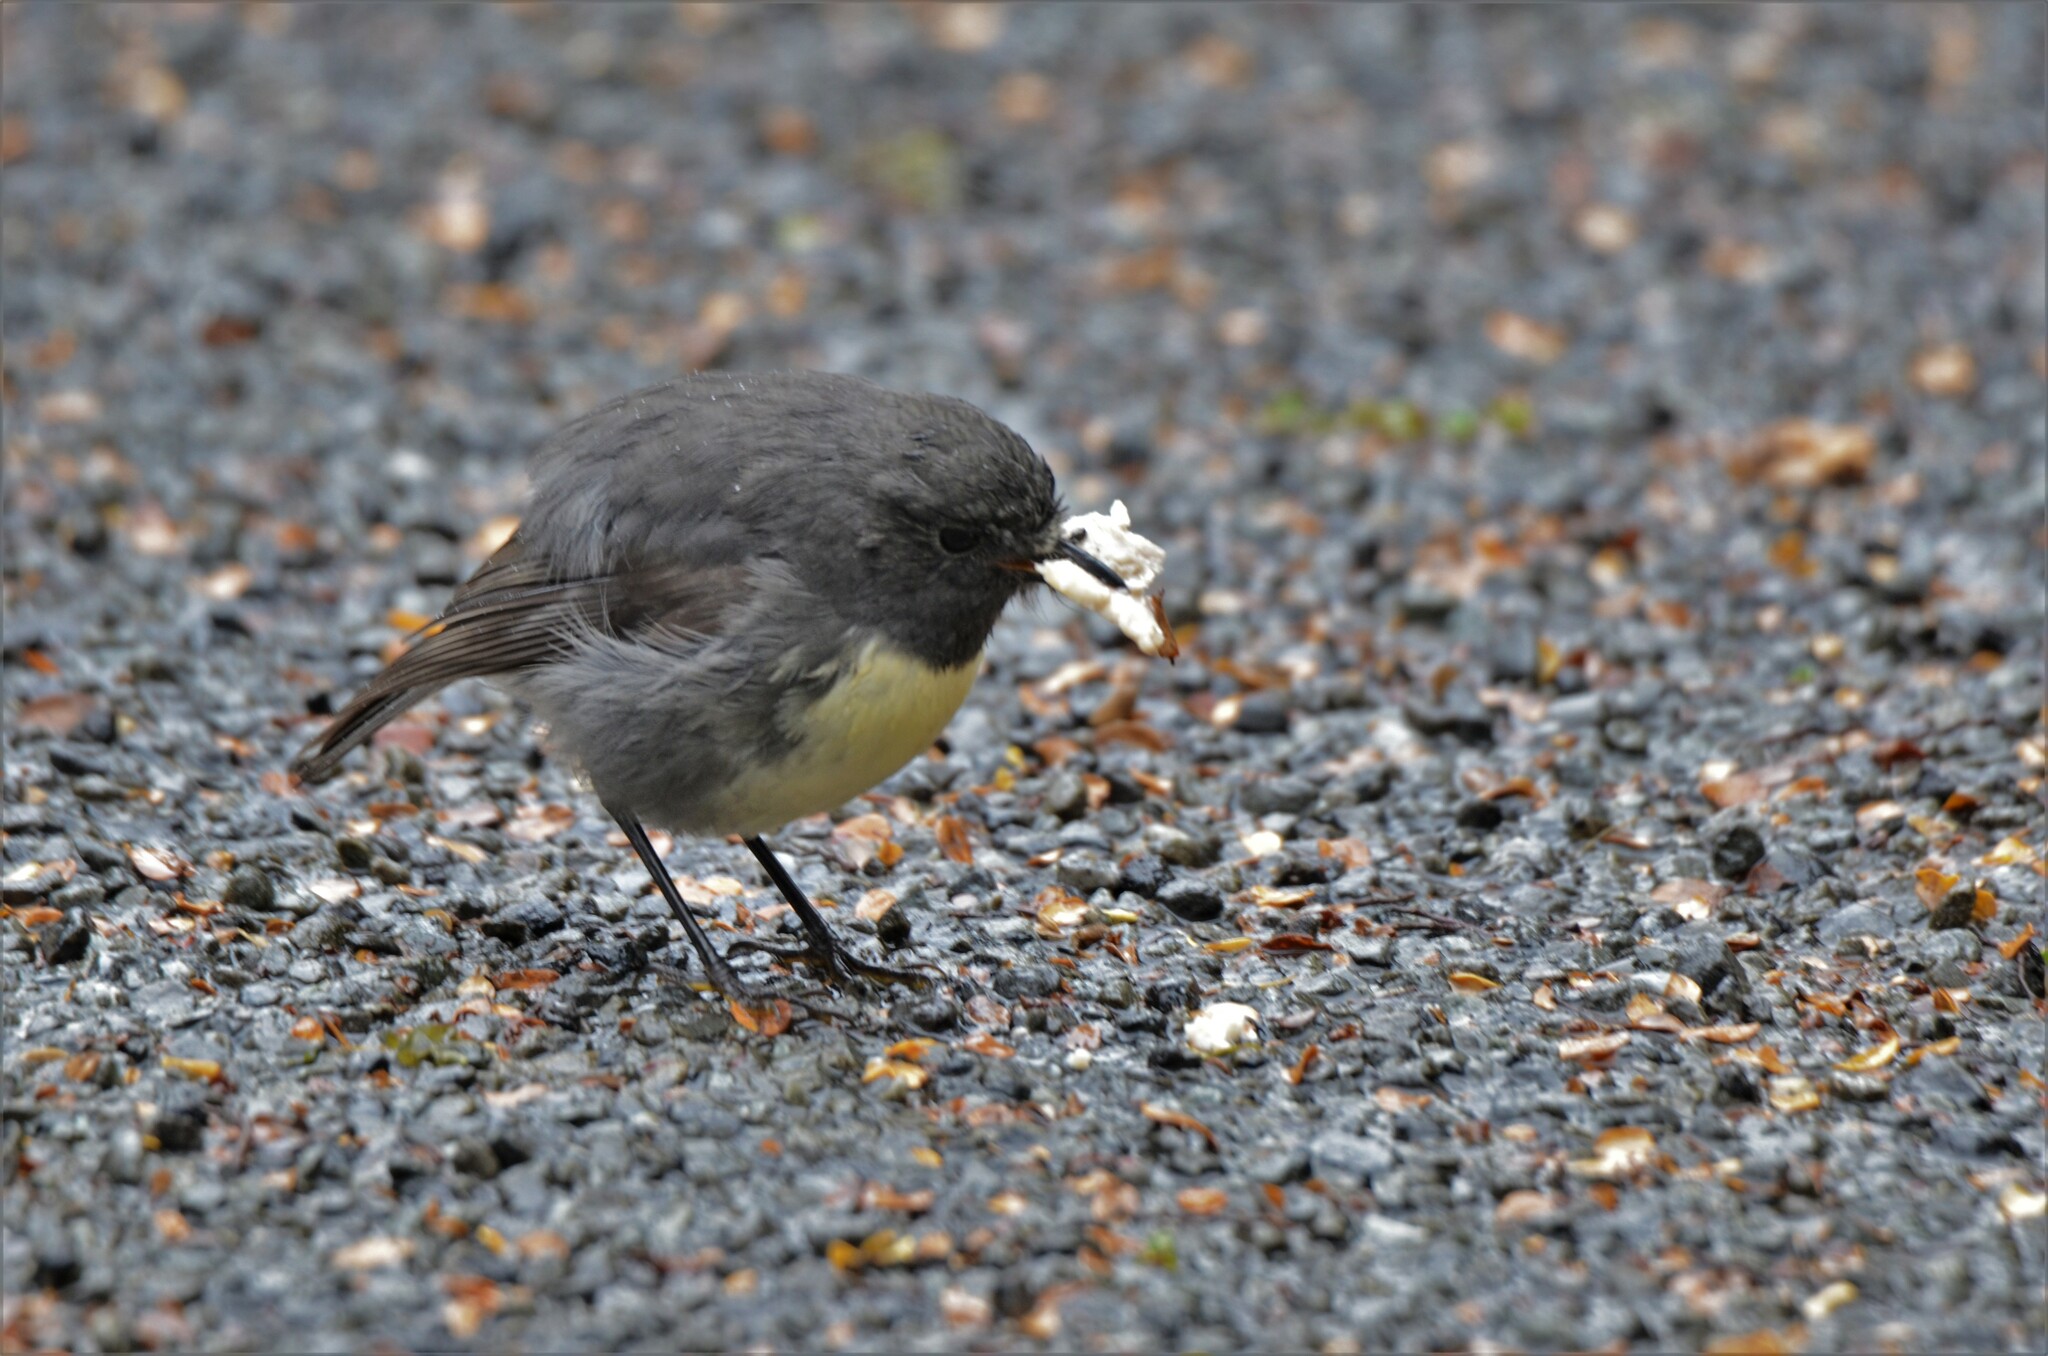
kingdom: Animalia
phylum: Chordata
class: Aves
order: Passeriformes
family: Petroicidae
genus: Petroica
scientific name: Petroica australis
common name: New zealand robin
